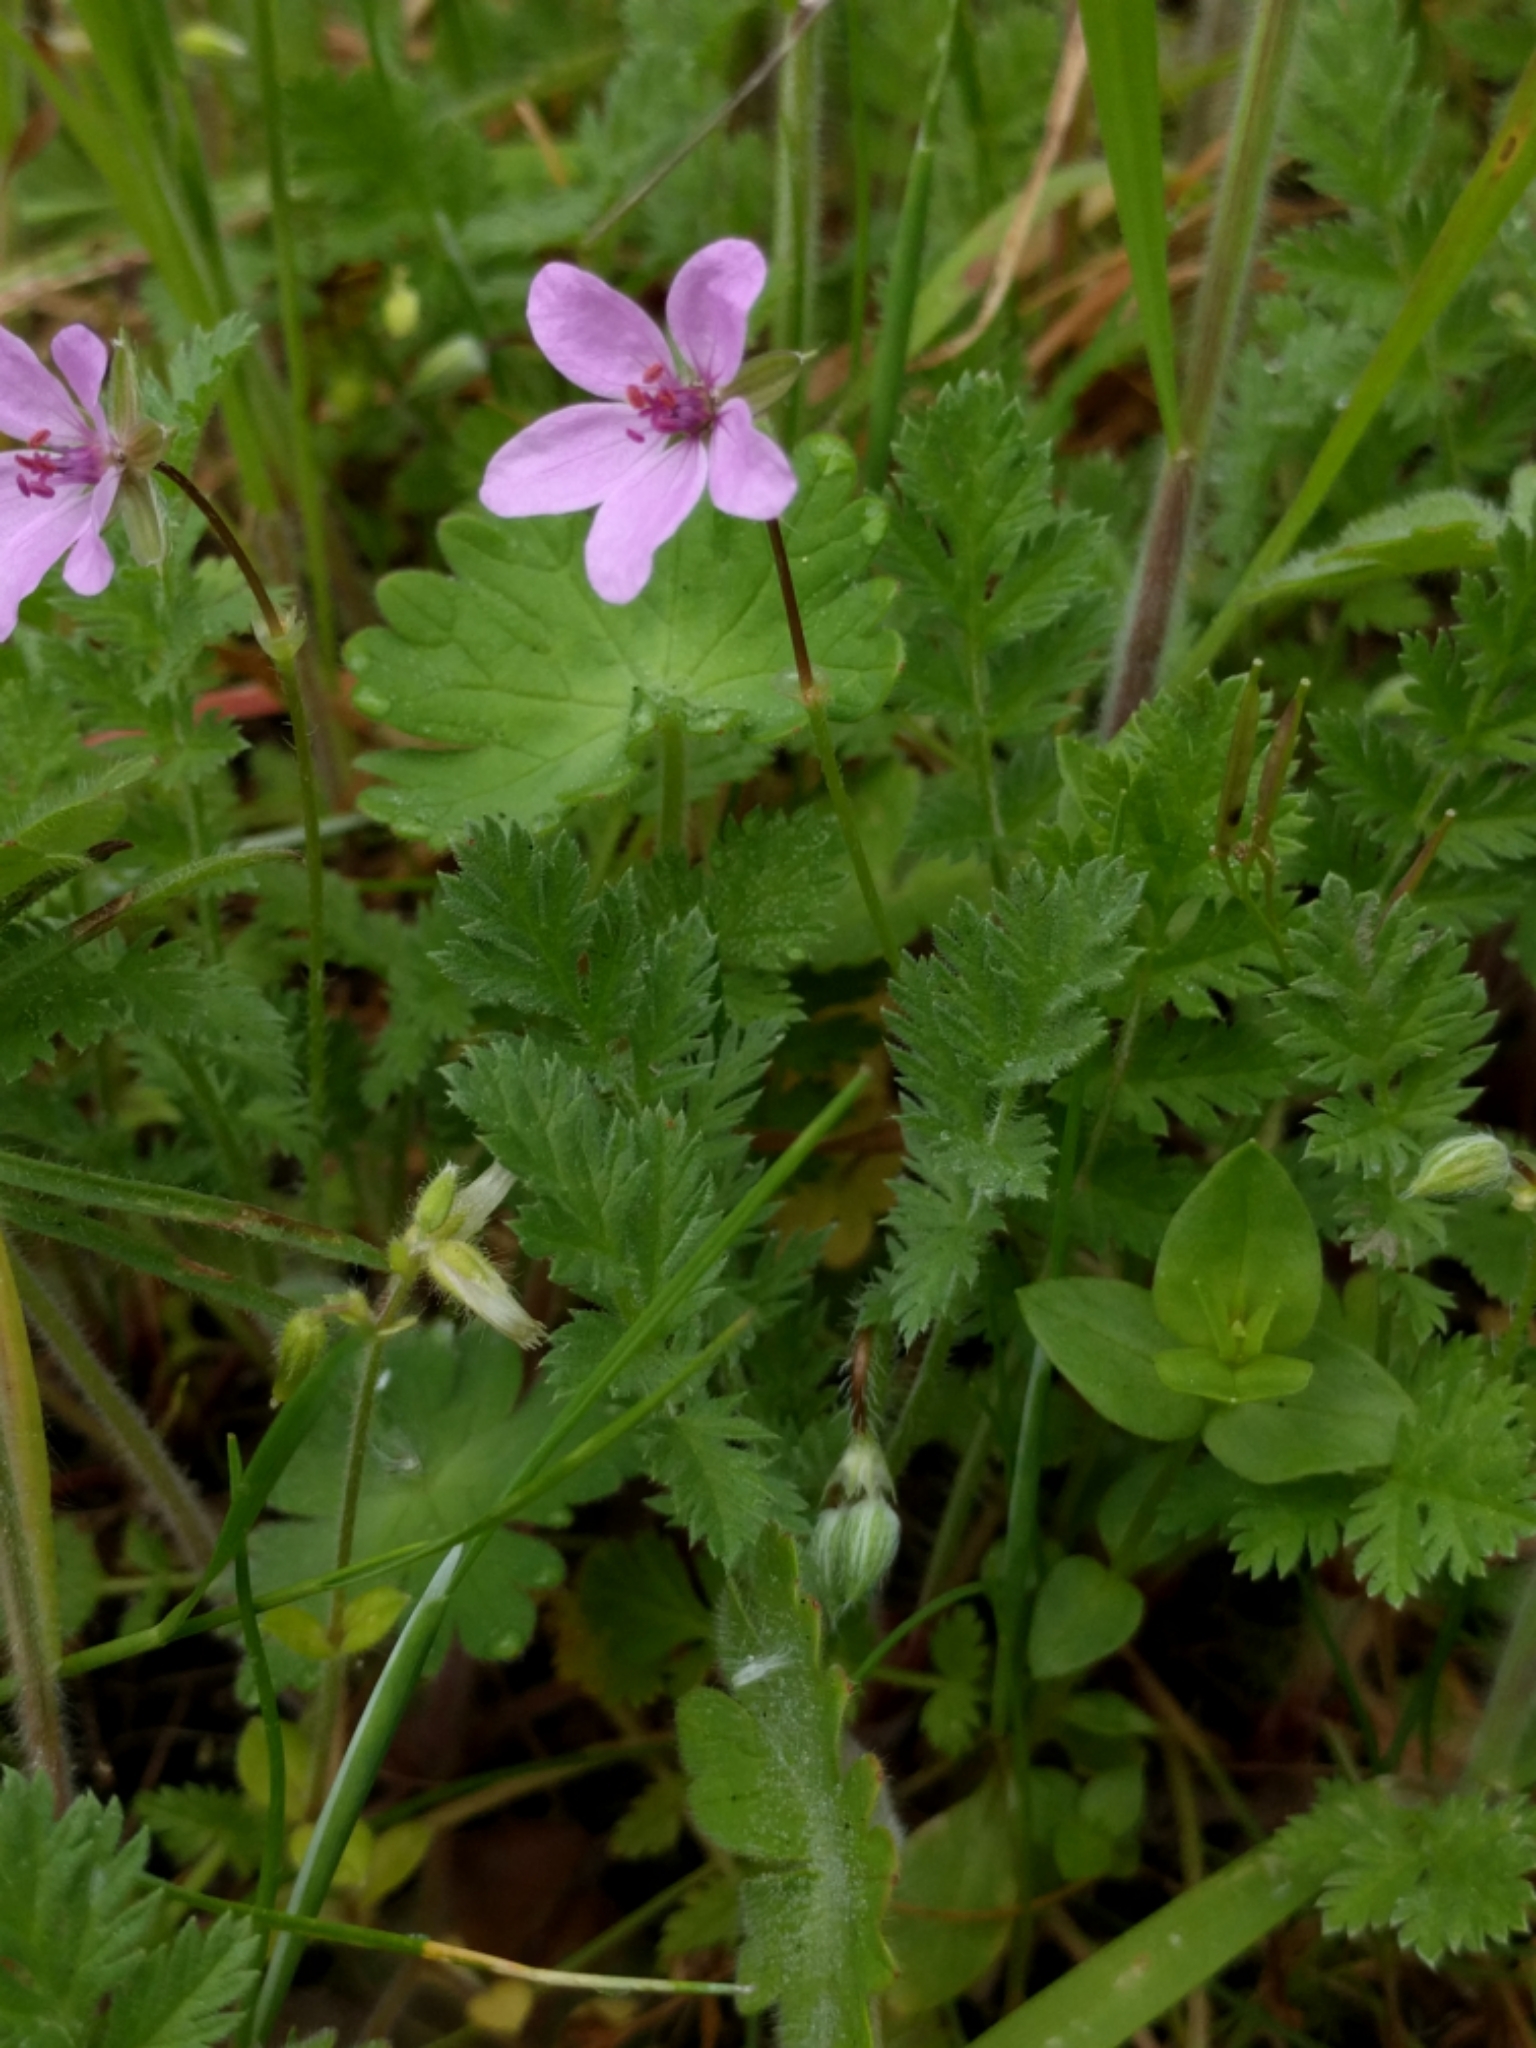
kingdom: Plantae
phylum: Tracheophyta
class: Magnoliopsida
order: Geraniales
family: Geraniaceae
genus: Erodium
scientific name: Erodium cicutarium
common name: Common stork's-bill
